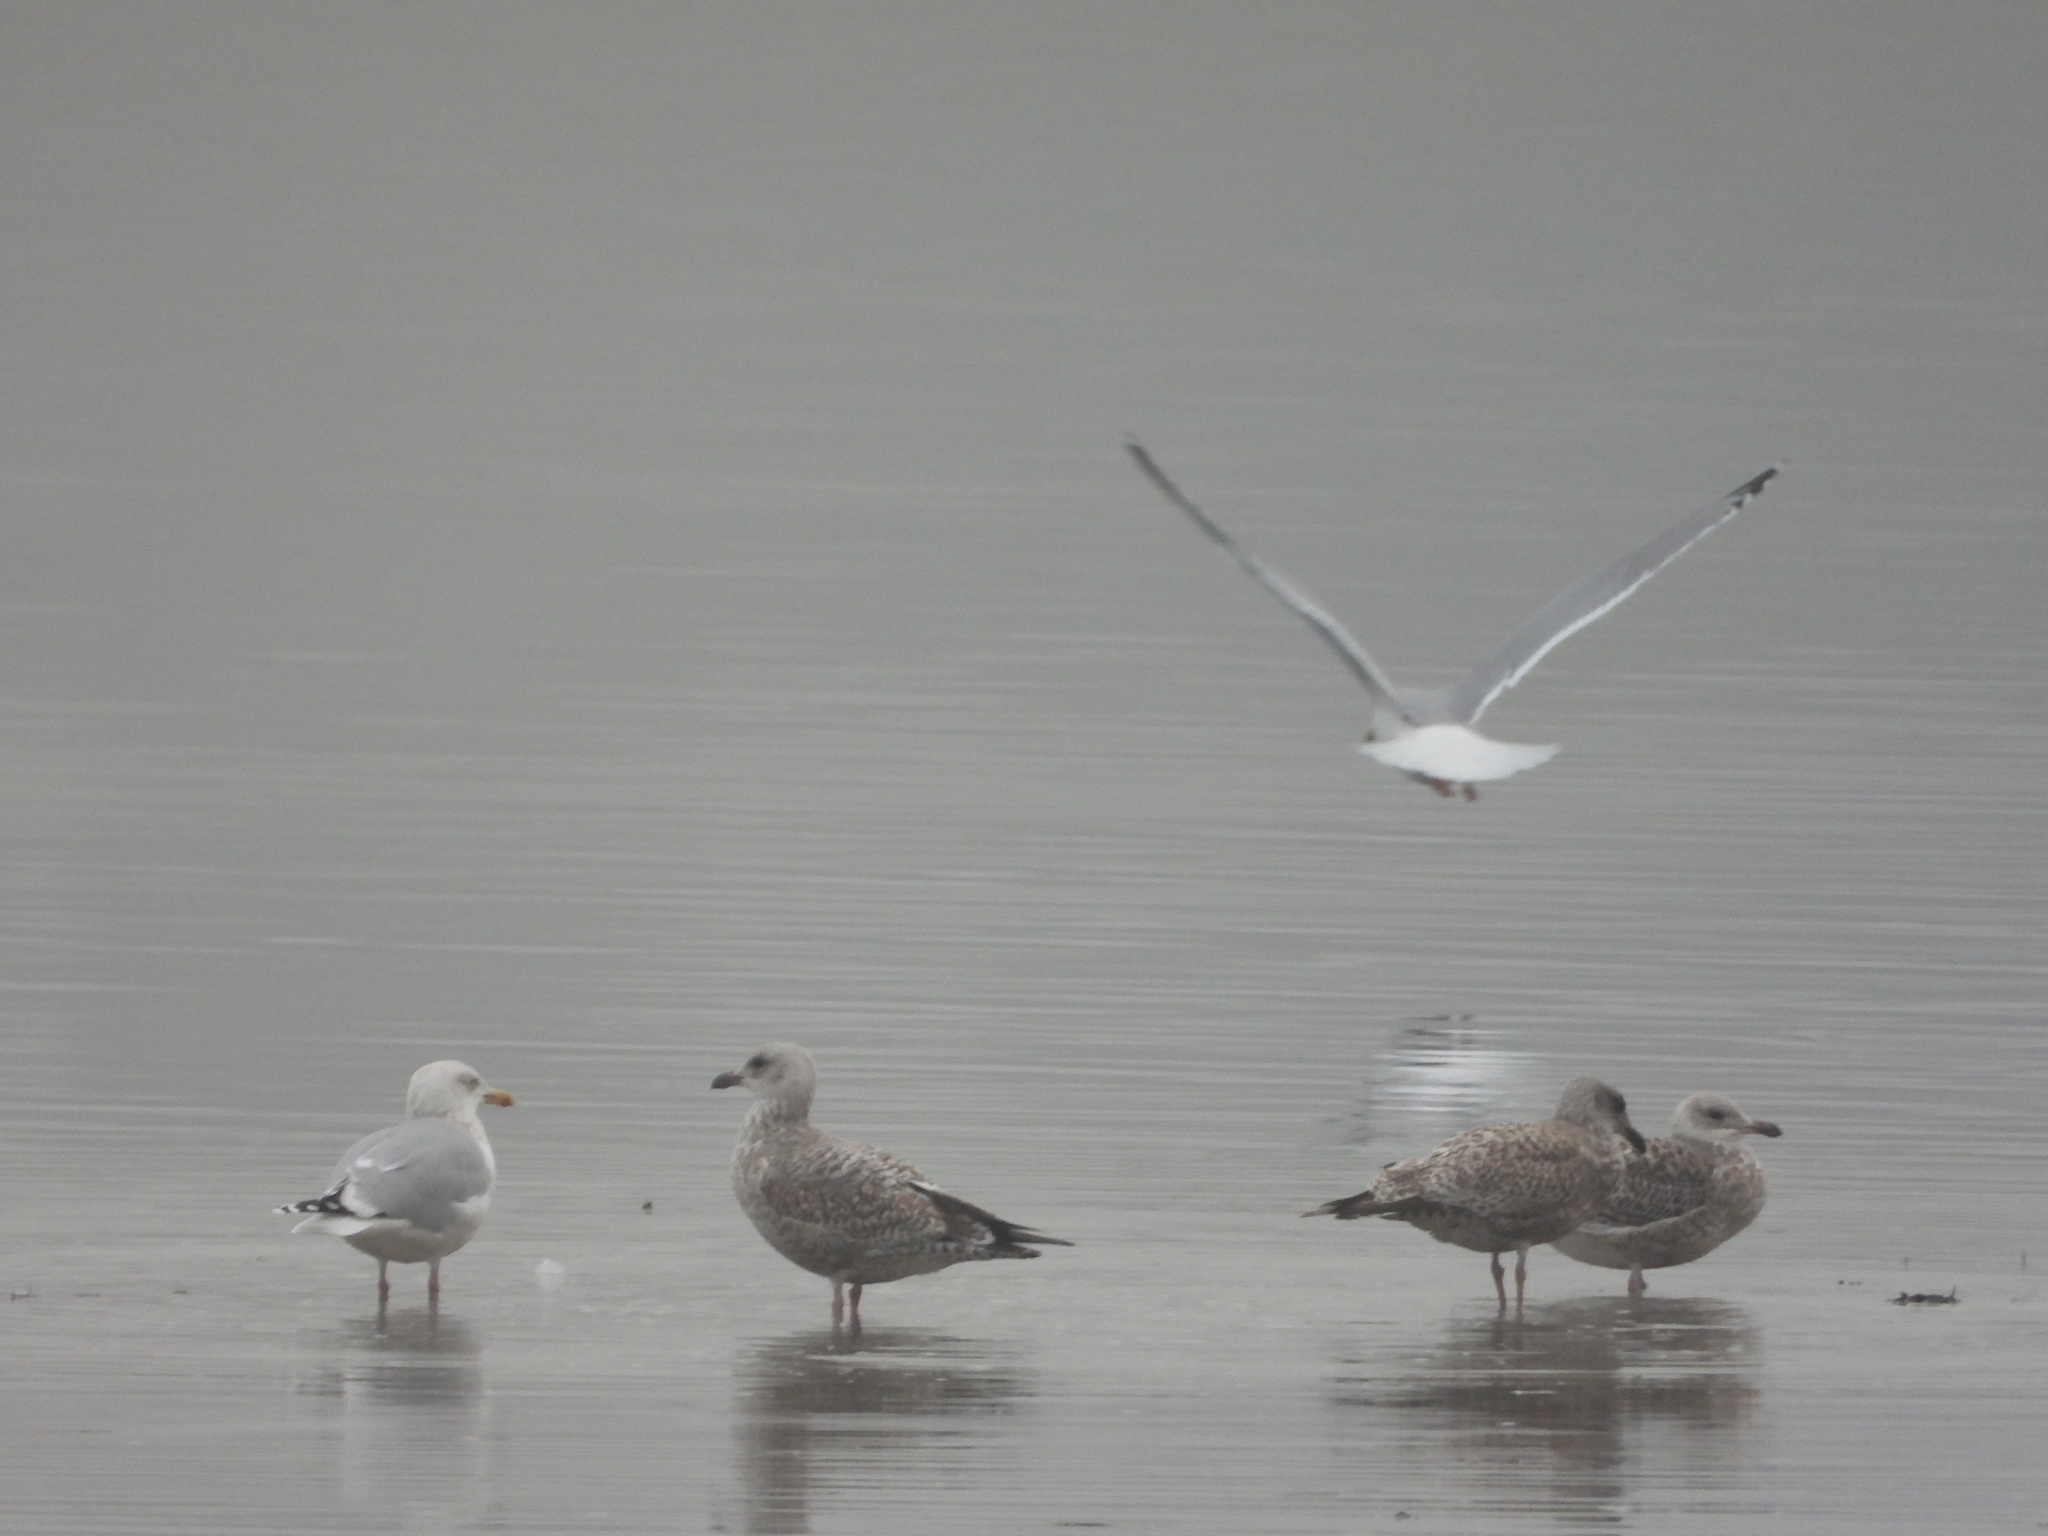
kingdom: Animalia
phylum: Chordata
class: Aves
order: Charadriiformes
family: Laridae
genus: Larus
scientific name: Larus argentatus
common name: Herring gull
